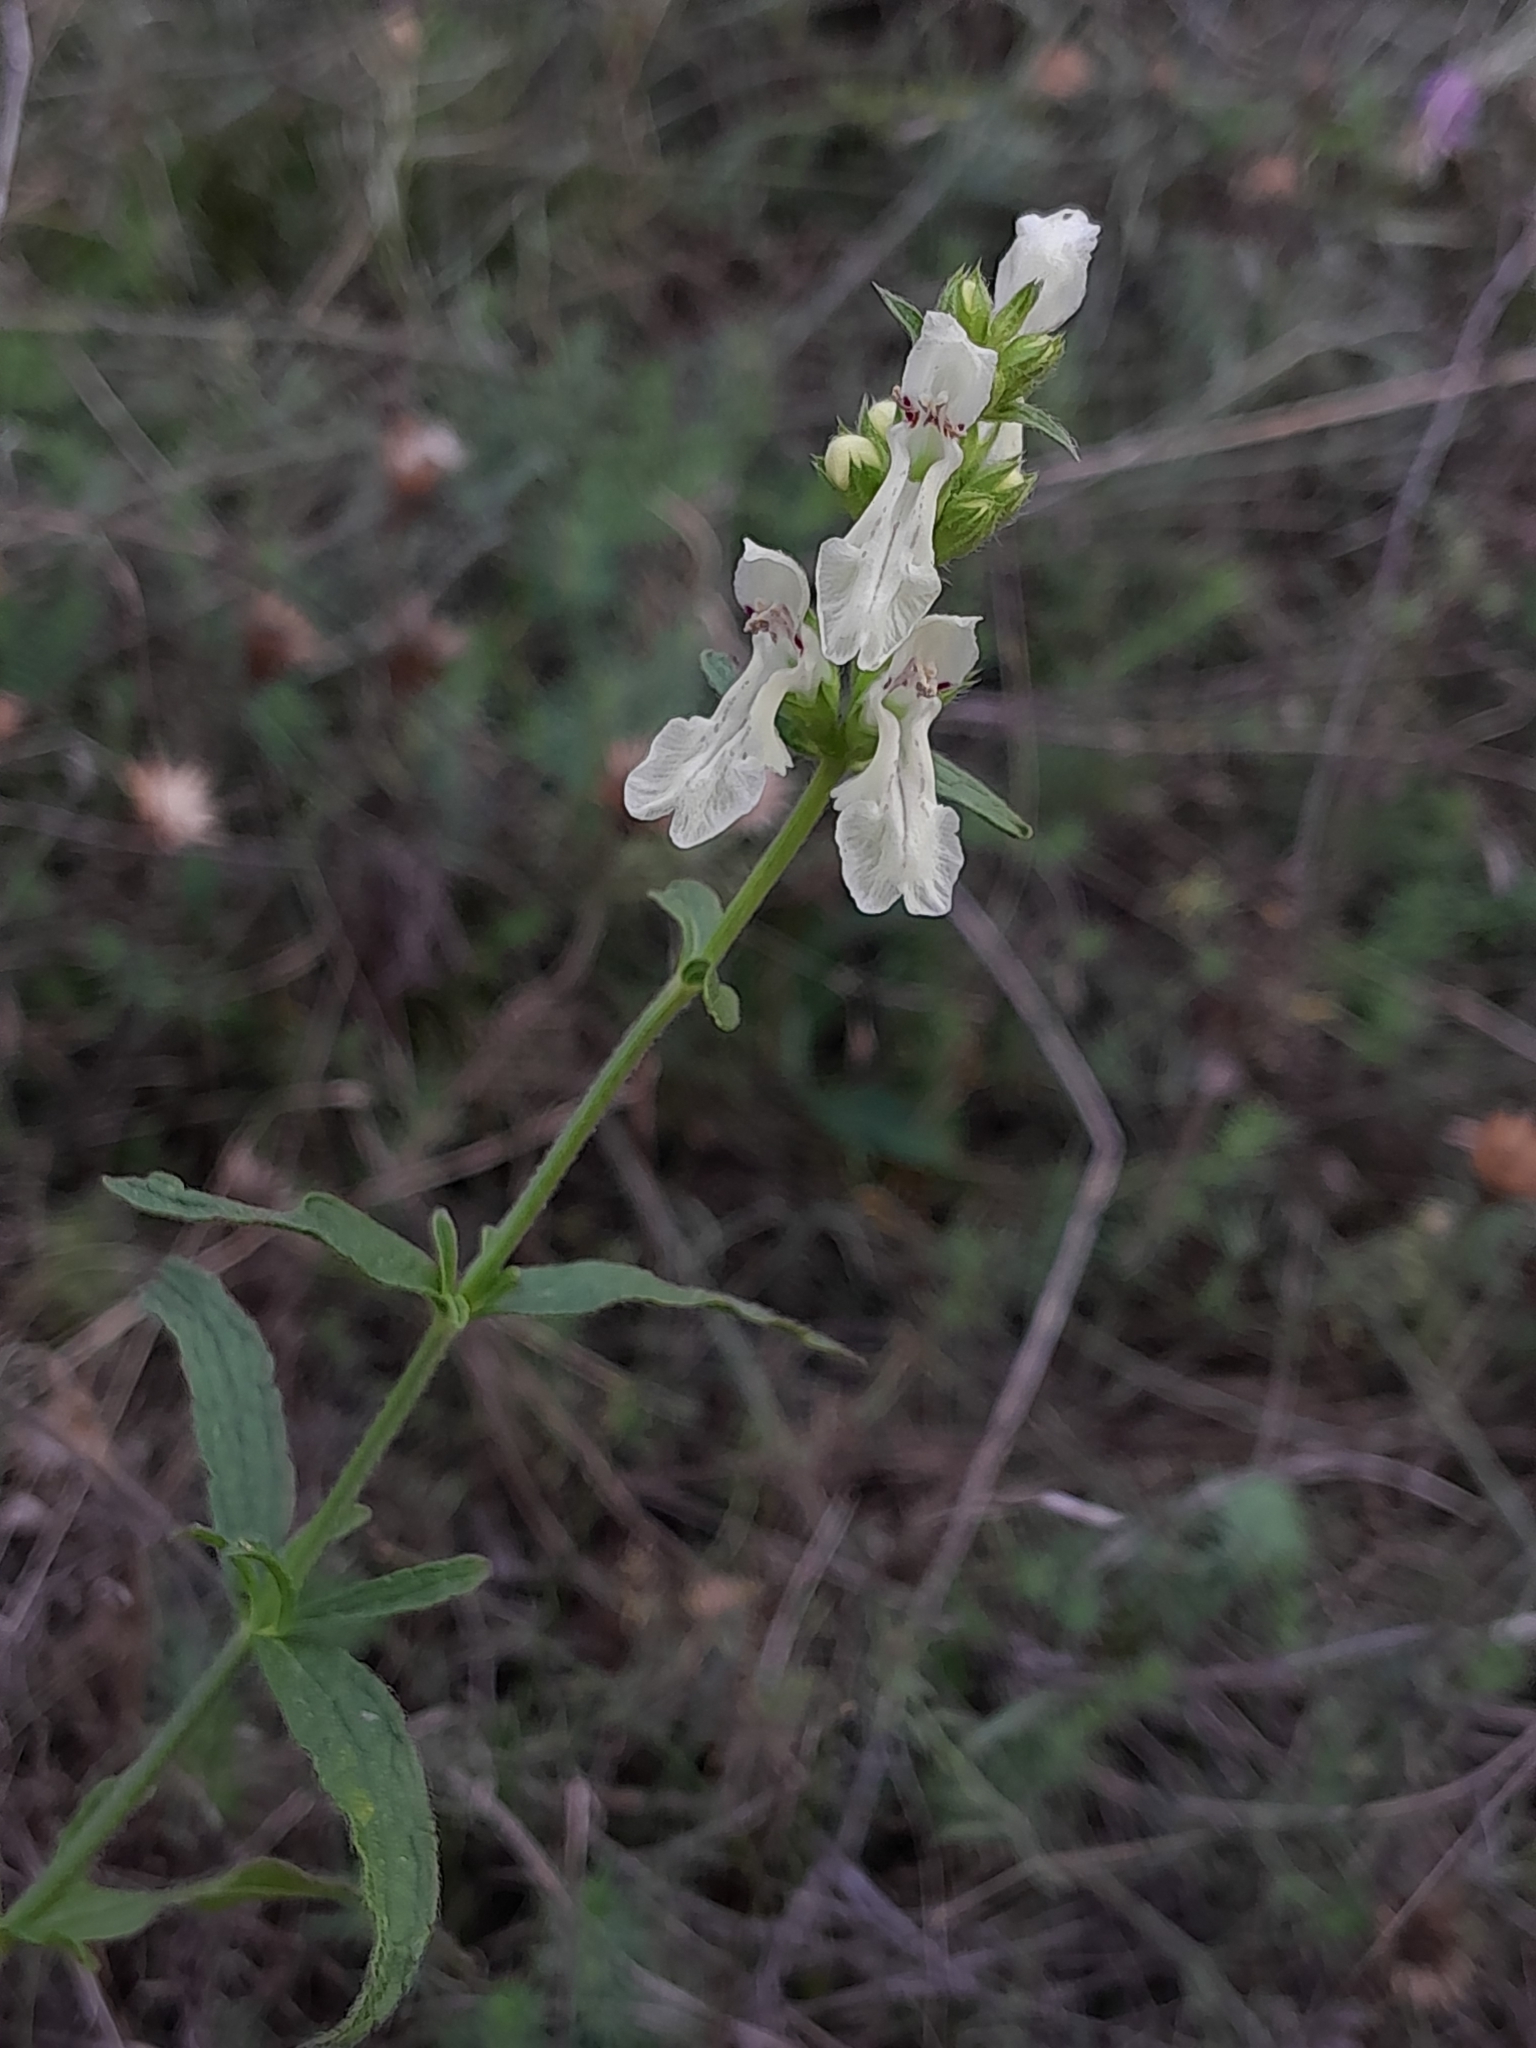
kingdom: Plantae
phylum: Tracheophyta
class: Magnoliopsida
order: Lamiales
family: Lamiaceae
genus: Stachys
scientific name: Stachys recta
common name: Perennial yellow-woundwort
